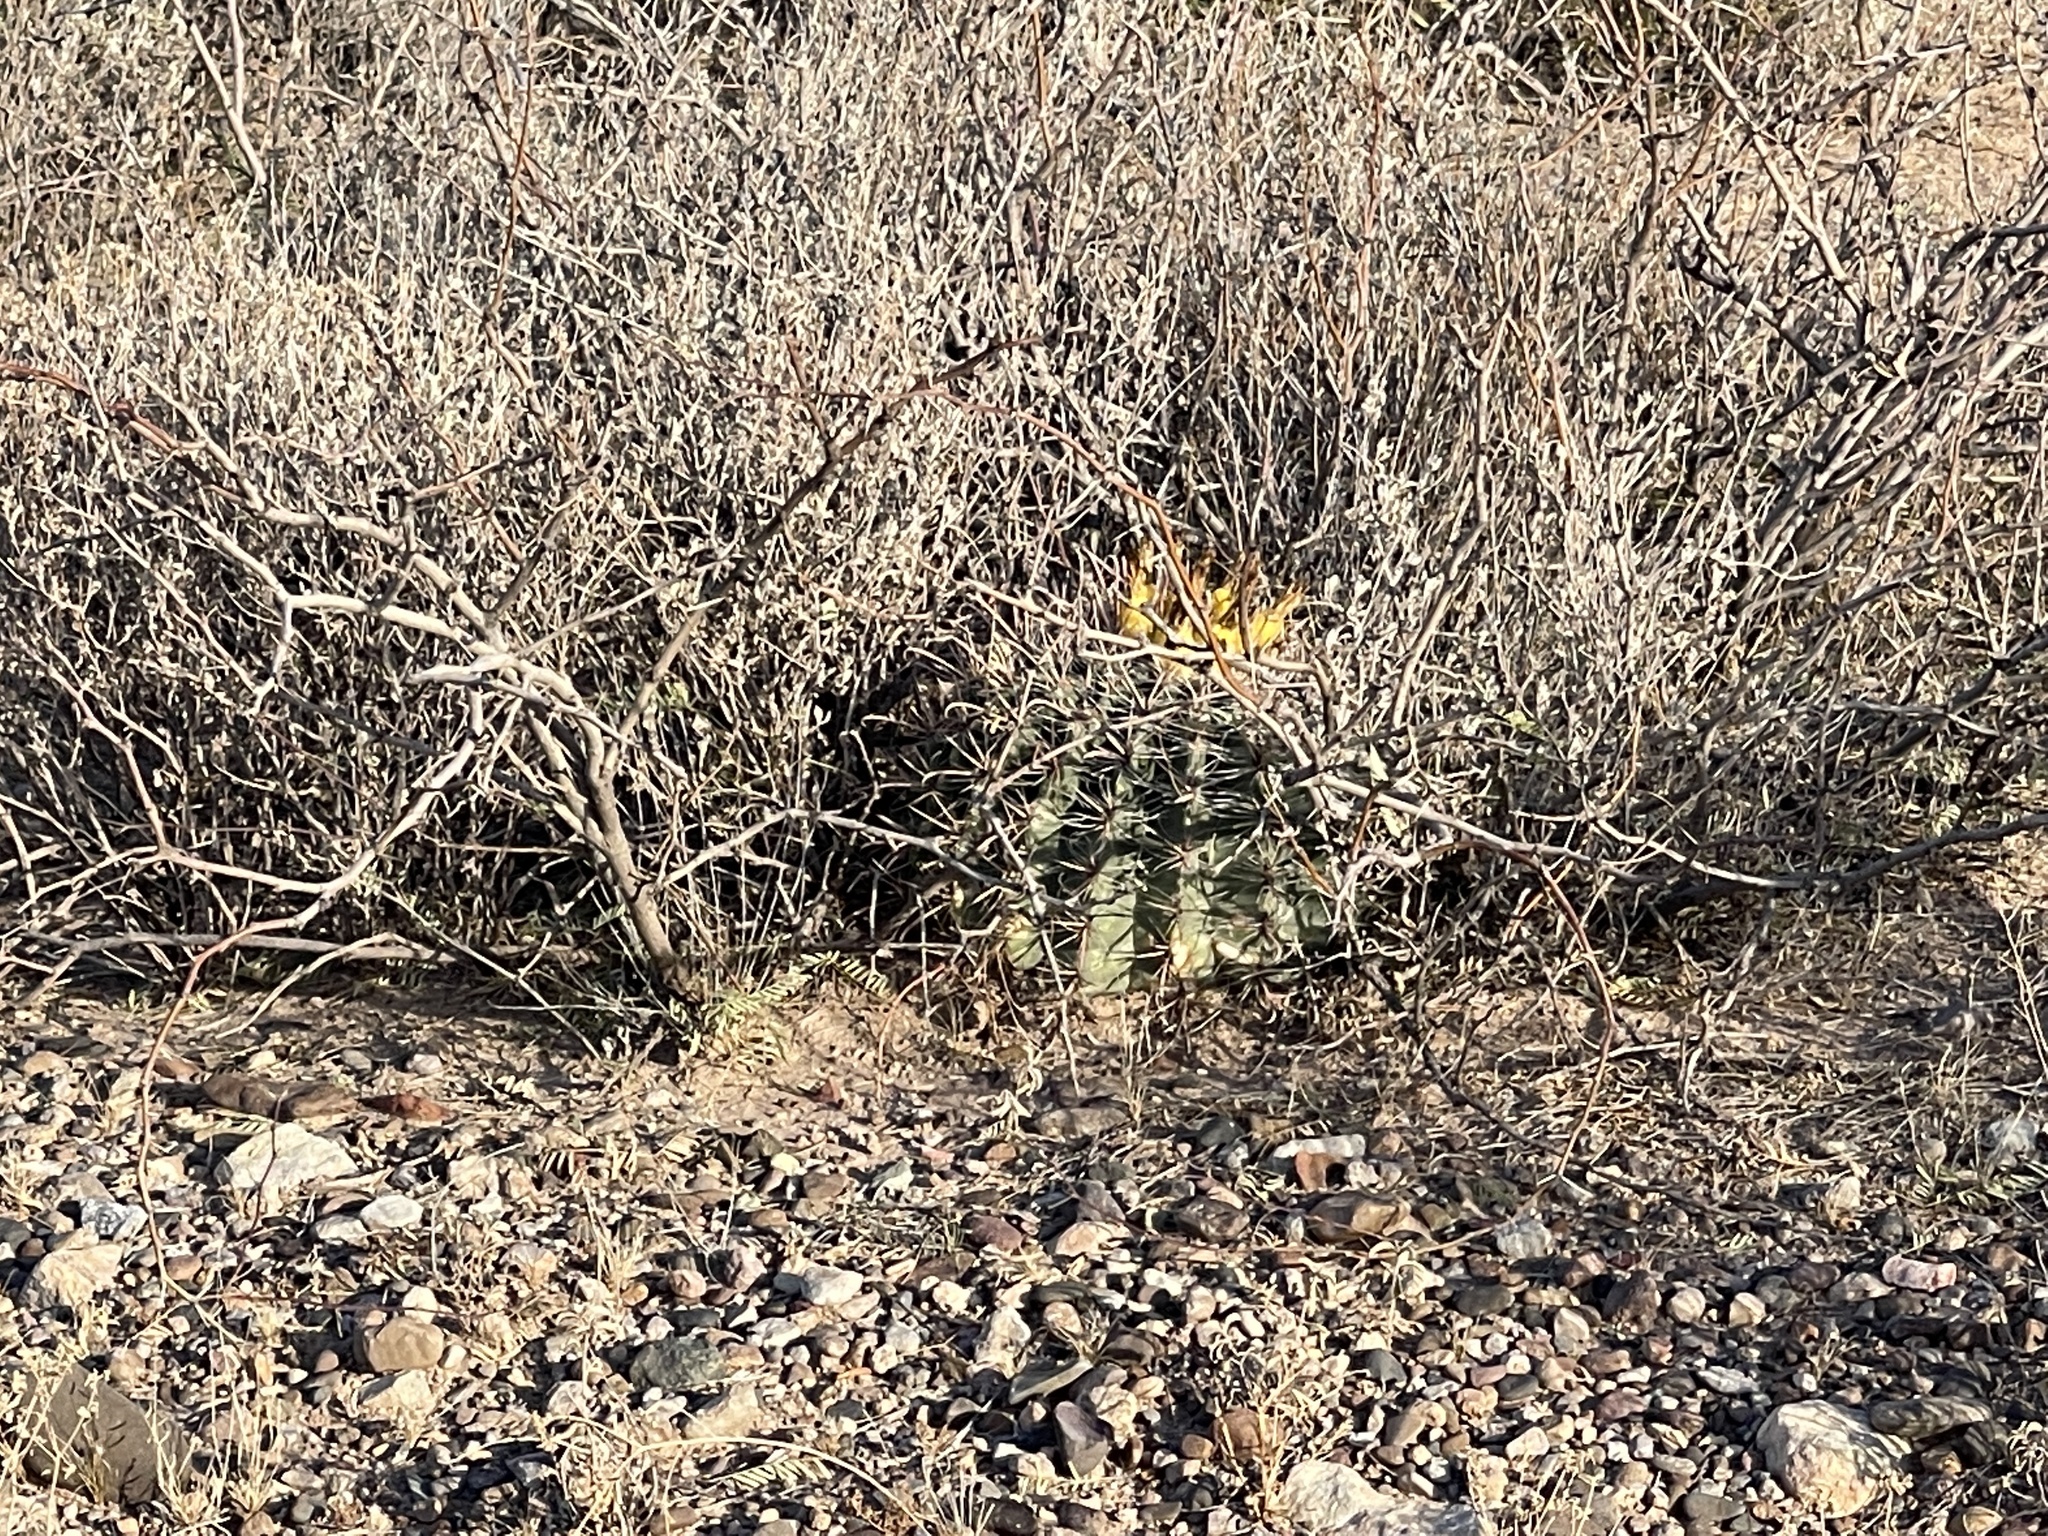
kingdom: Plantae
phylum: Tracheophyta
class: Magnoliopsida
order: Caryophyllales
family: Cactaceae
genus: Ferocactus
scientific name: Ferocactus wislizeni
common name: Candy barrel cactus
